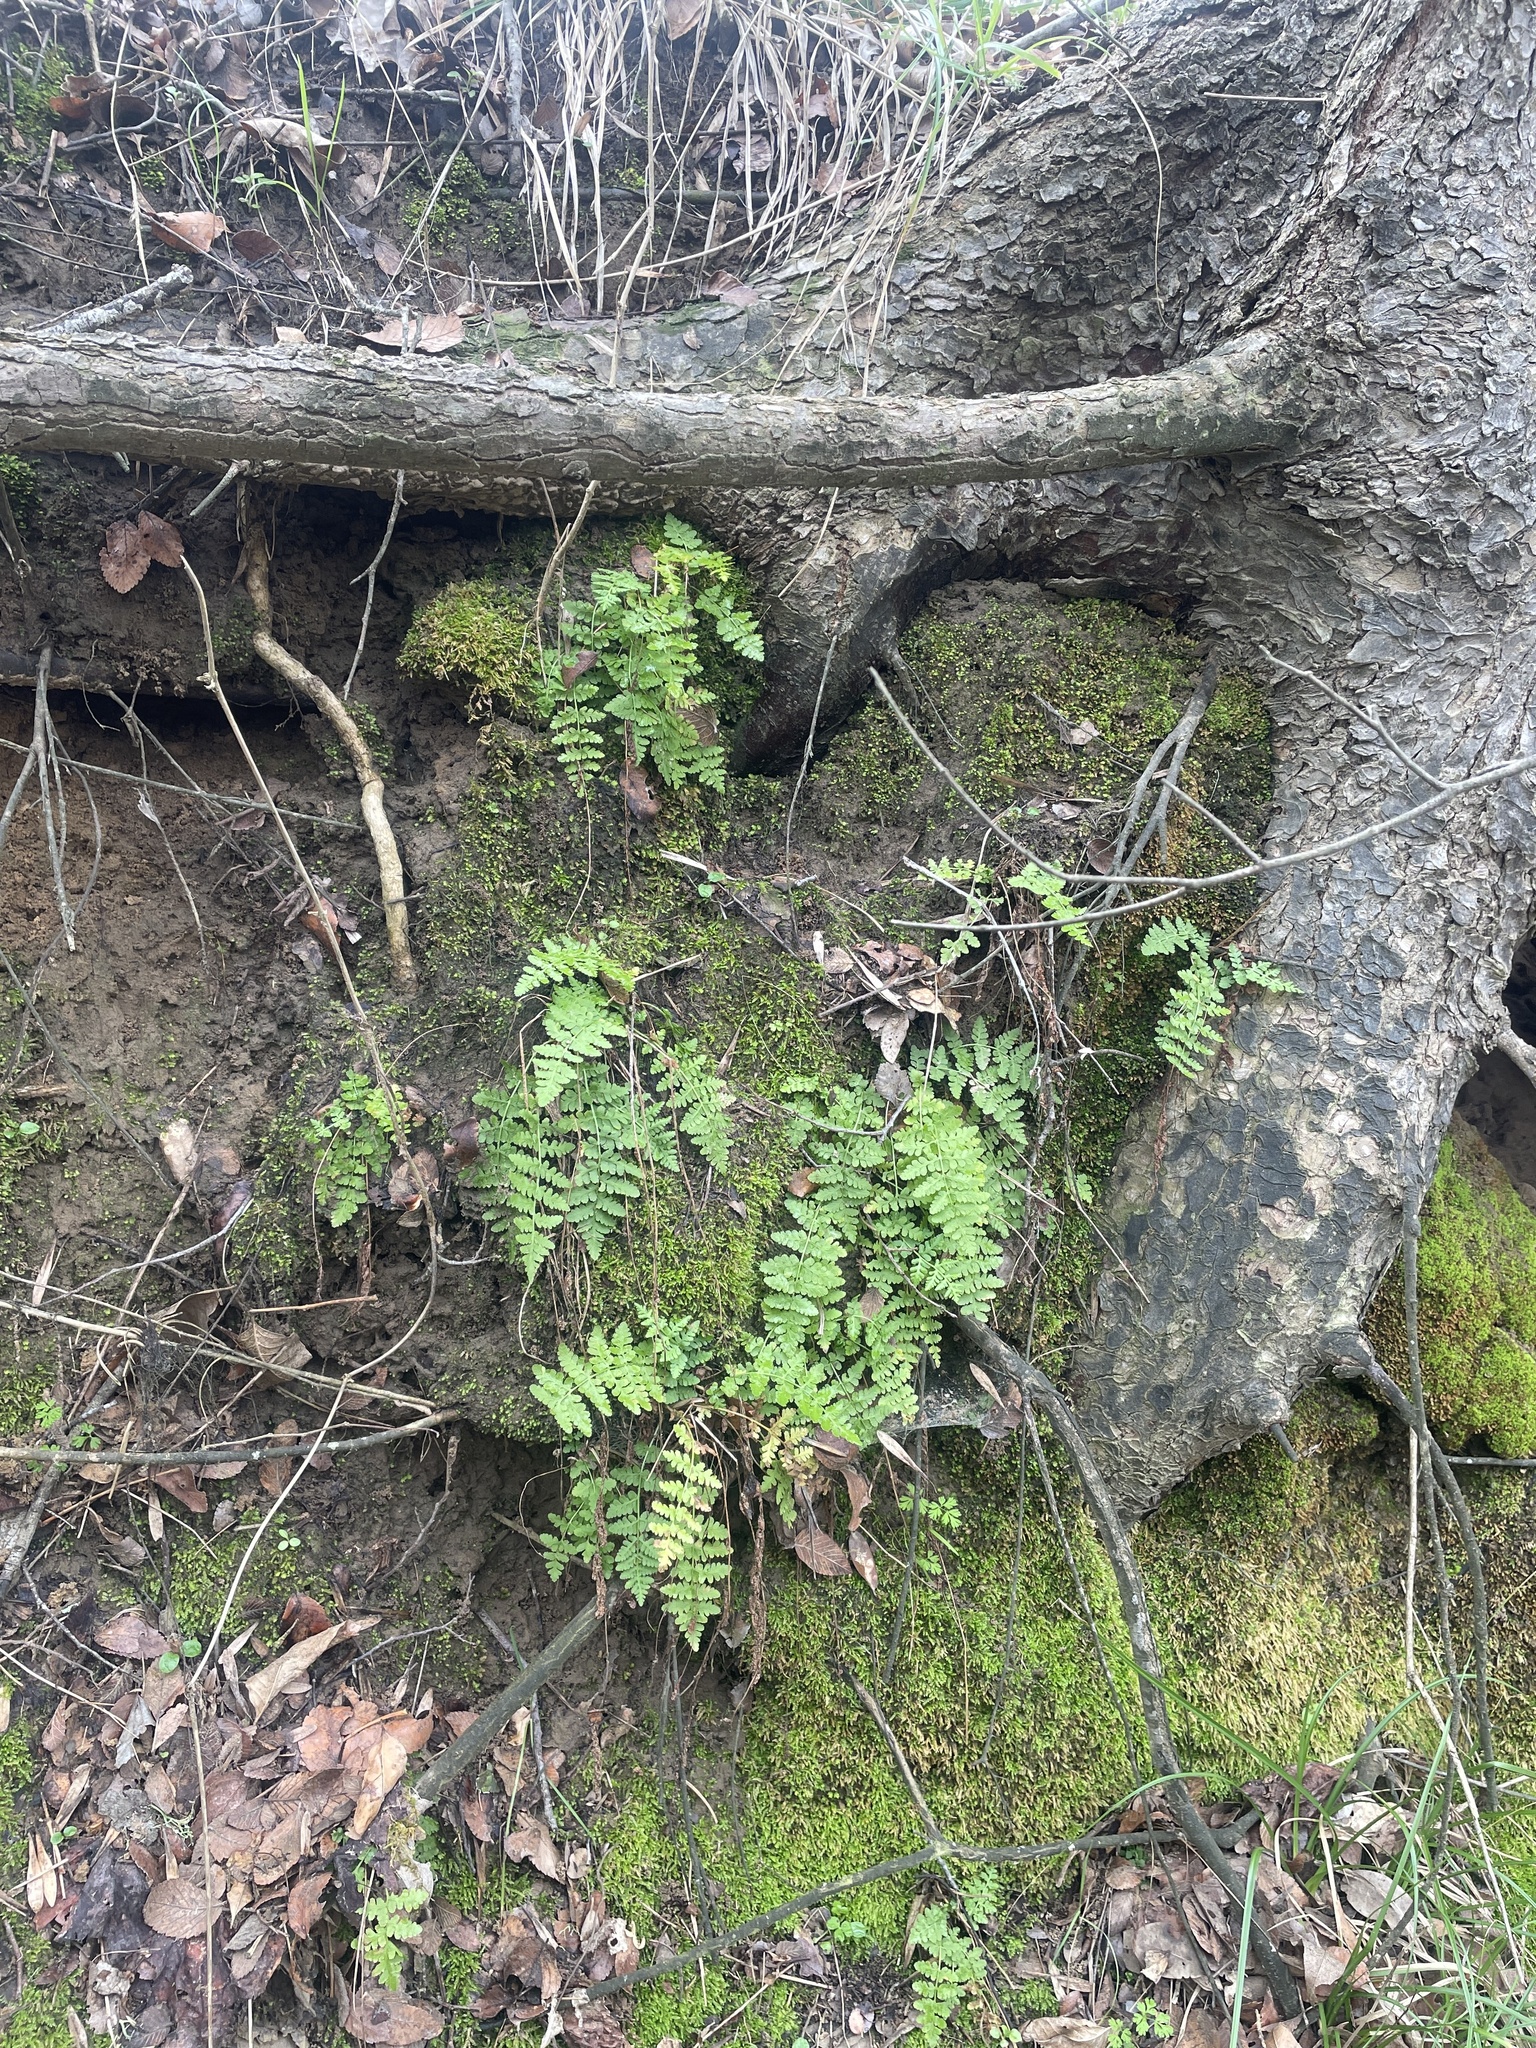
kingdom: Plantae
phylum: Tracheophyta
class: Polypodiopsida
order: Polypodiales
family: Woodsiaceae
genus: Physematium
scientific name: Physematium obtusum
